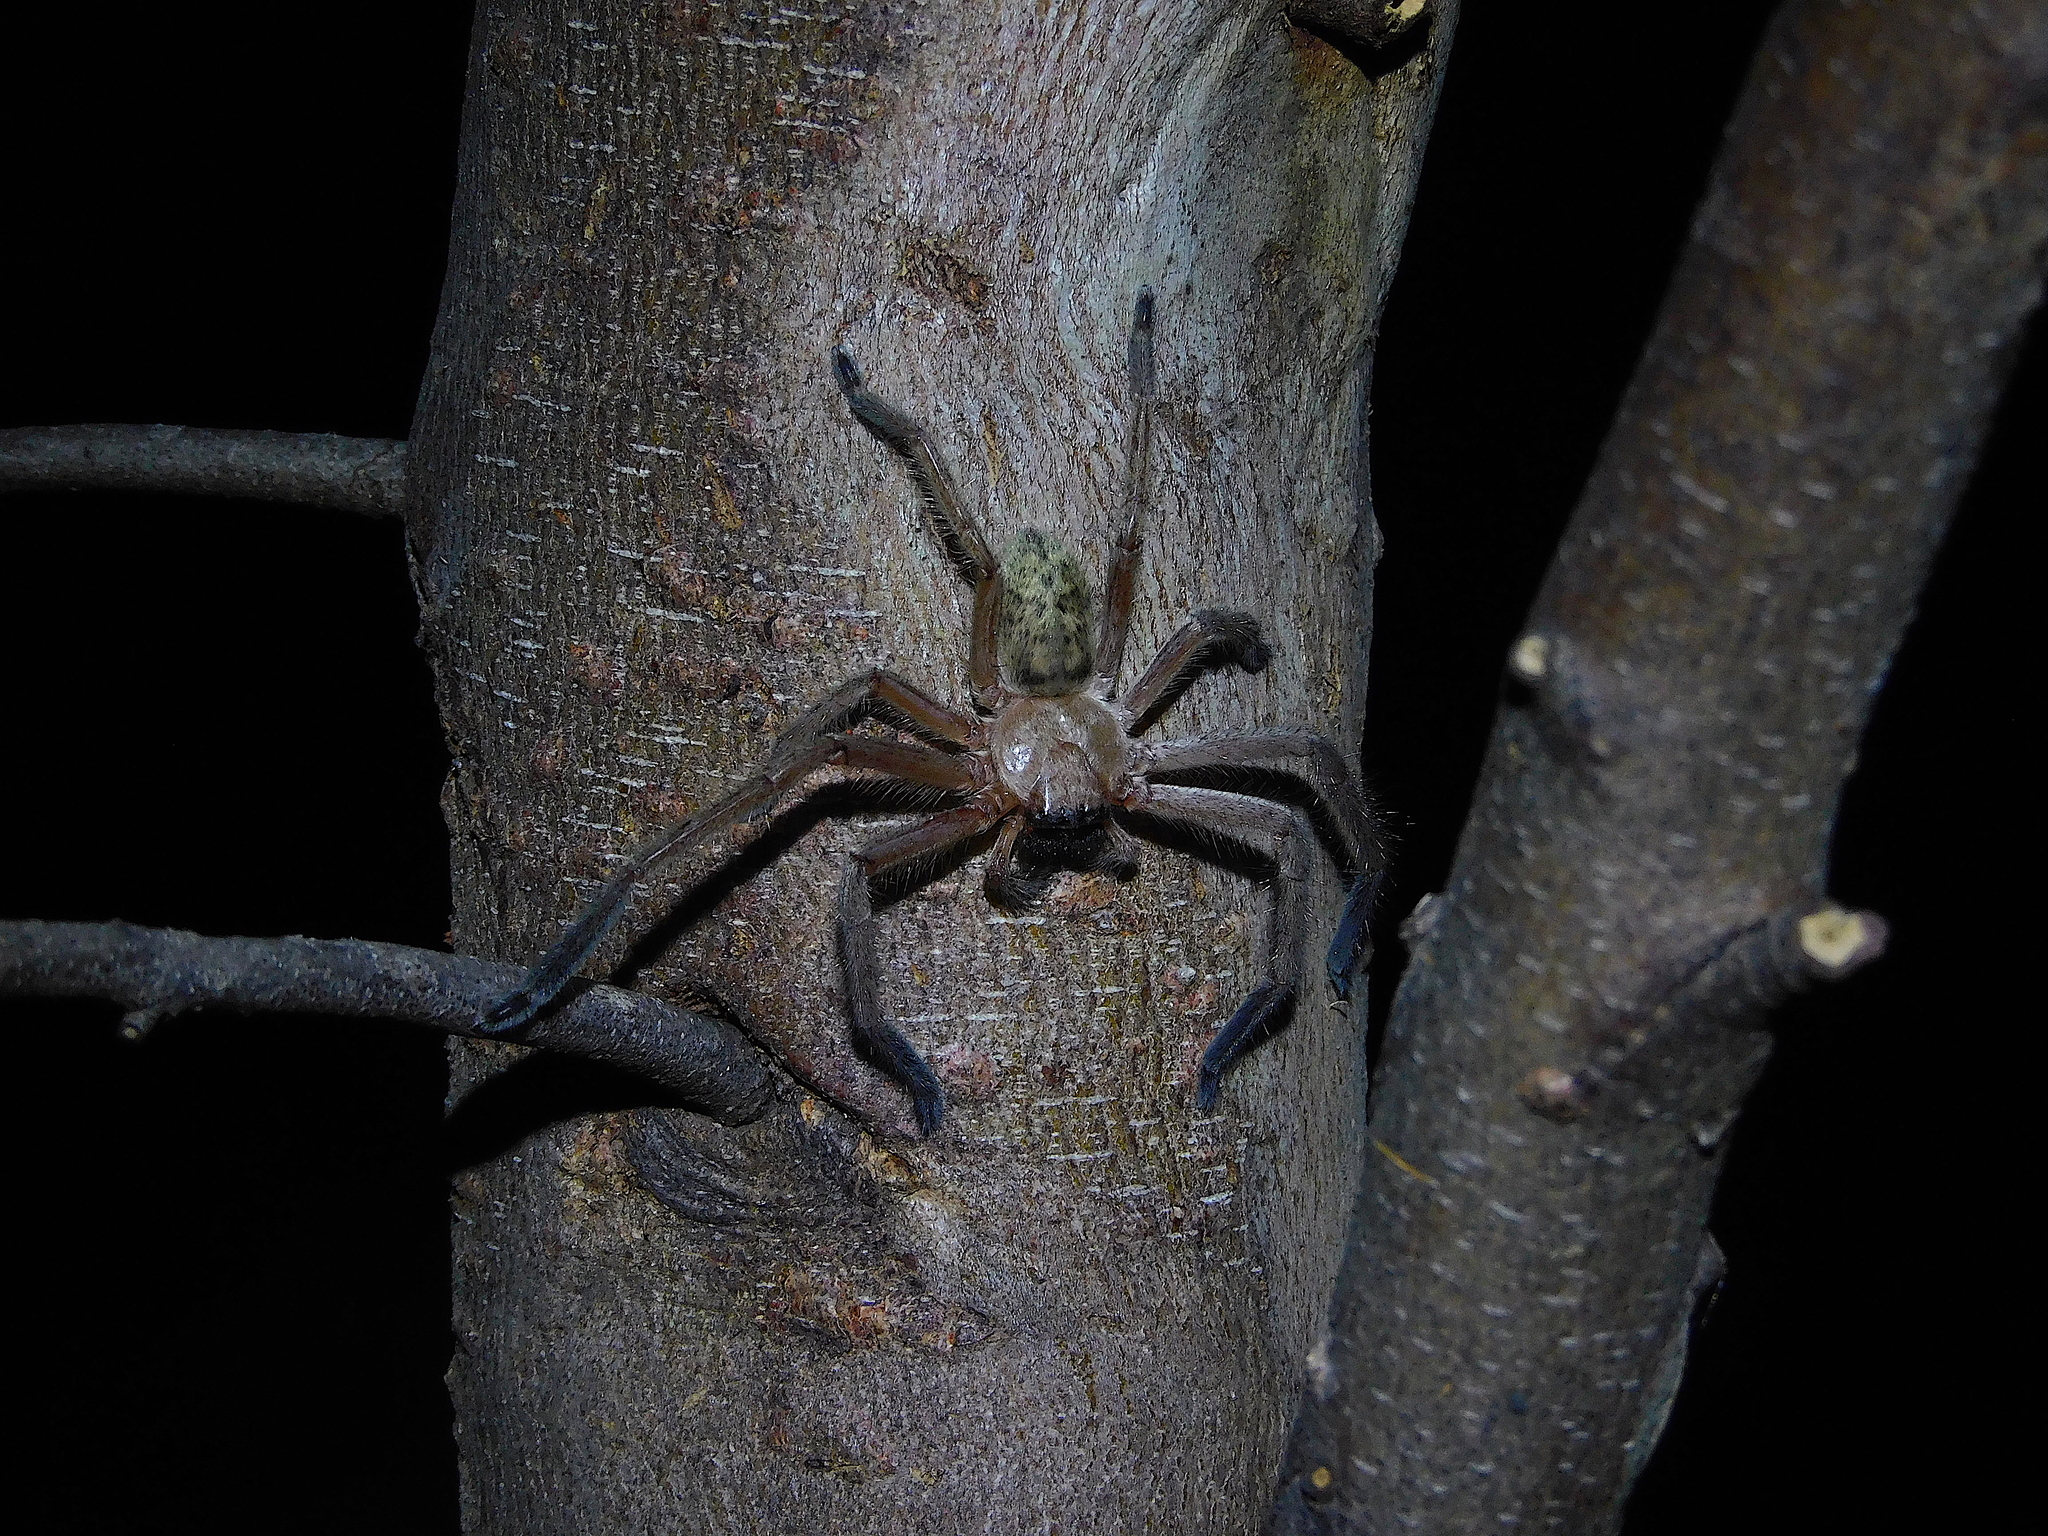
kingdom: Animalia
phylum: Arthropoda
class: Arachnida
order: Araneae
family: Sparassidae
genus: Delena
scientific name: Delena cancerides
